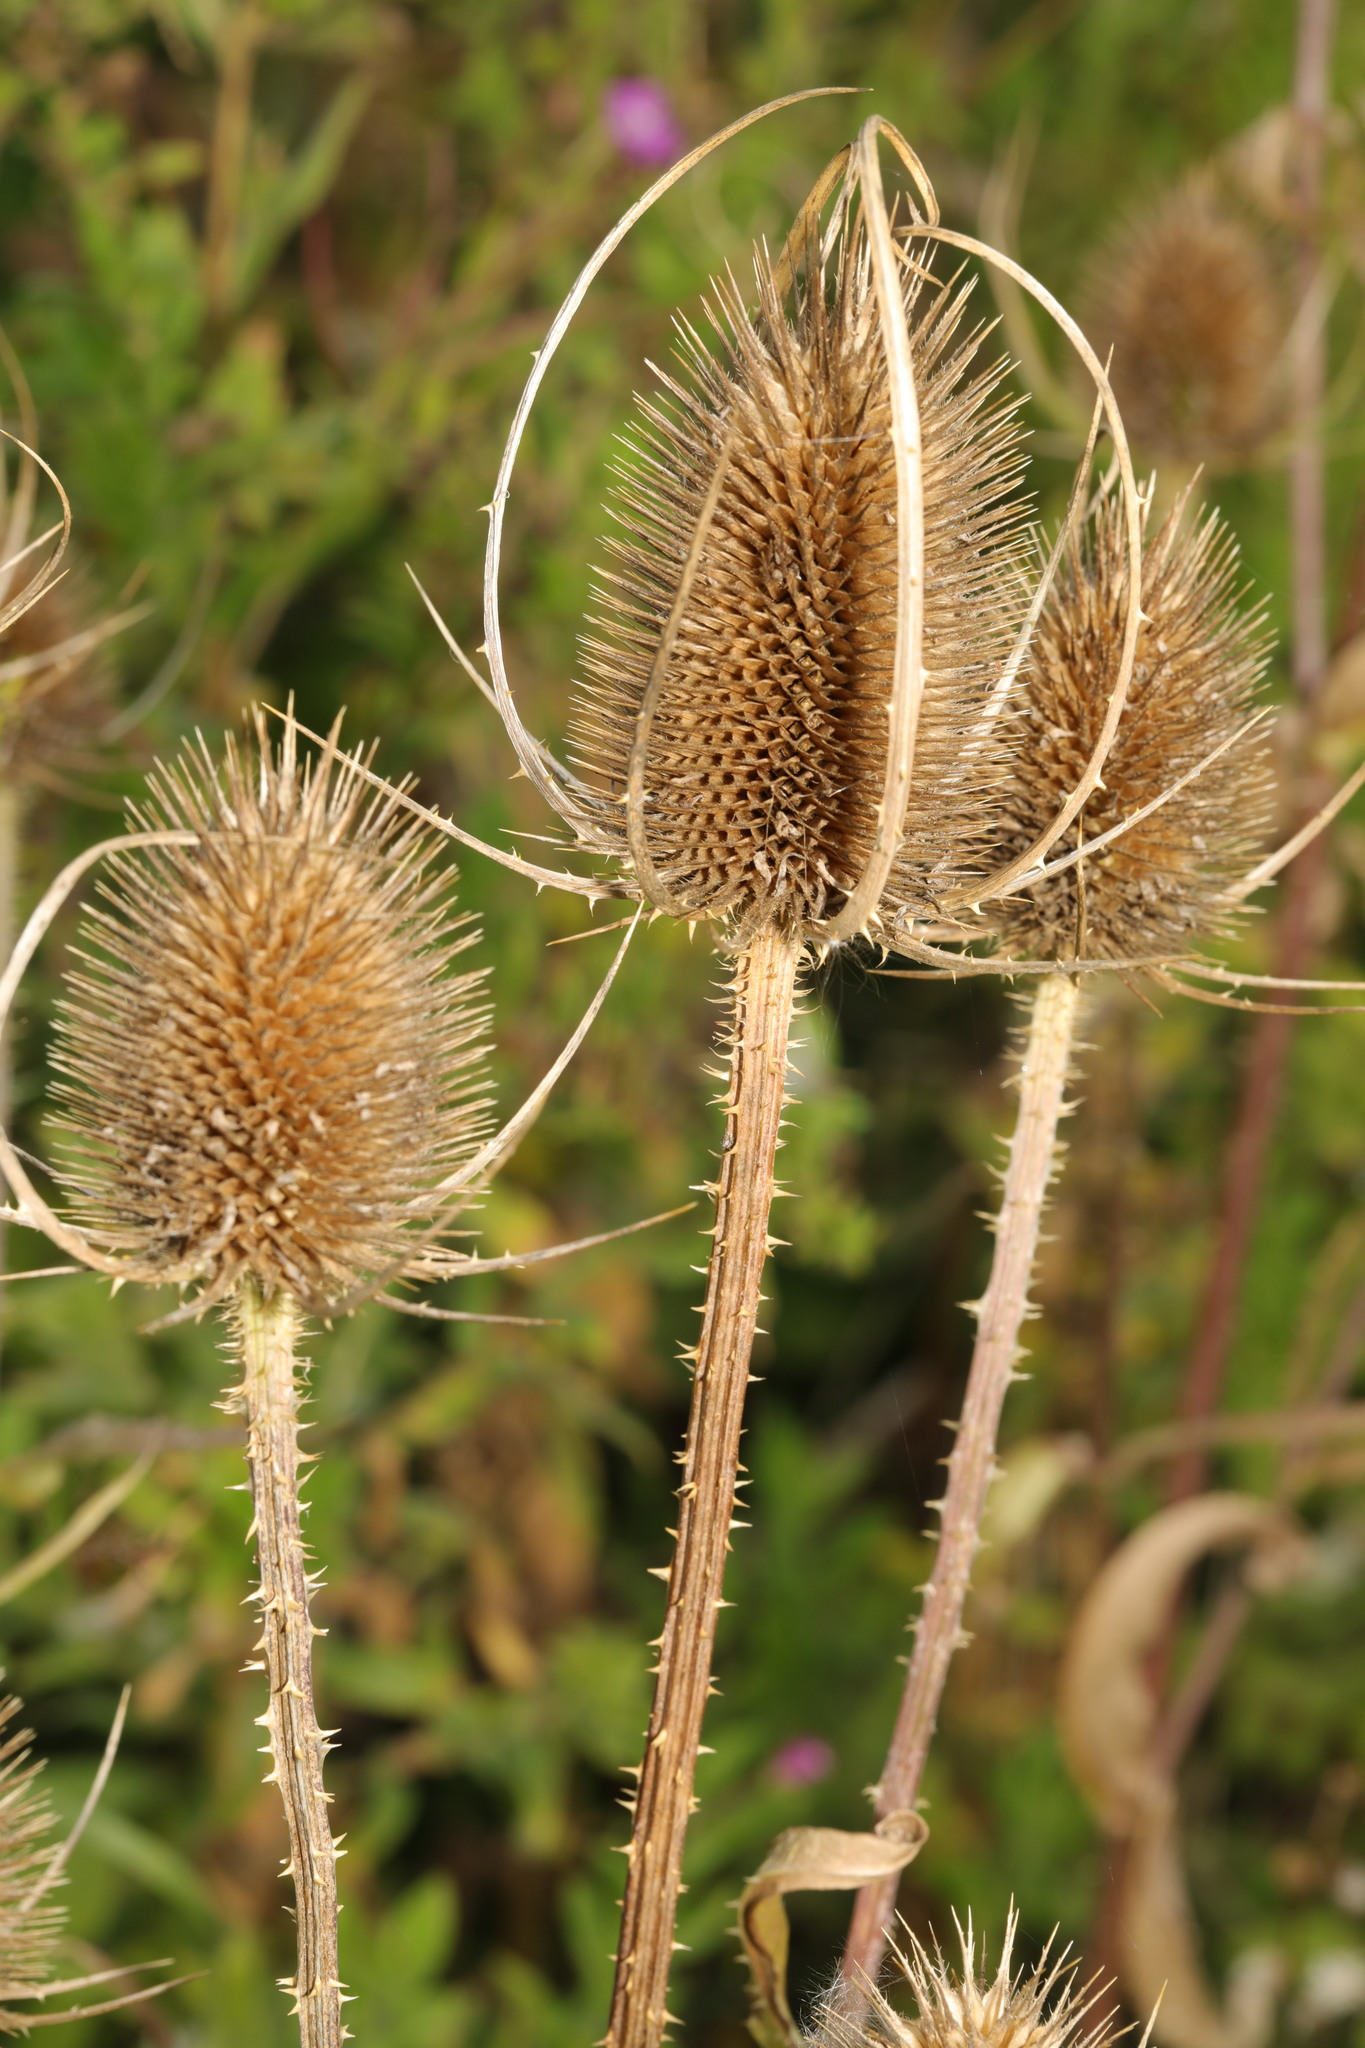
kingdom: Plantae
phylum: Tracheophyta
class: Magnoliopsida
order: Dipsacales
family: Caprifoliaceae
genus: Dipsacus
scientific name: Dipsacus fullonum
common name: Teasel
